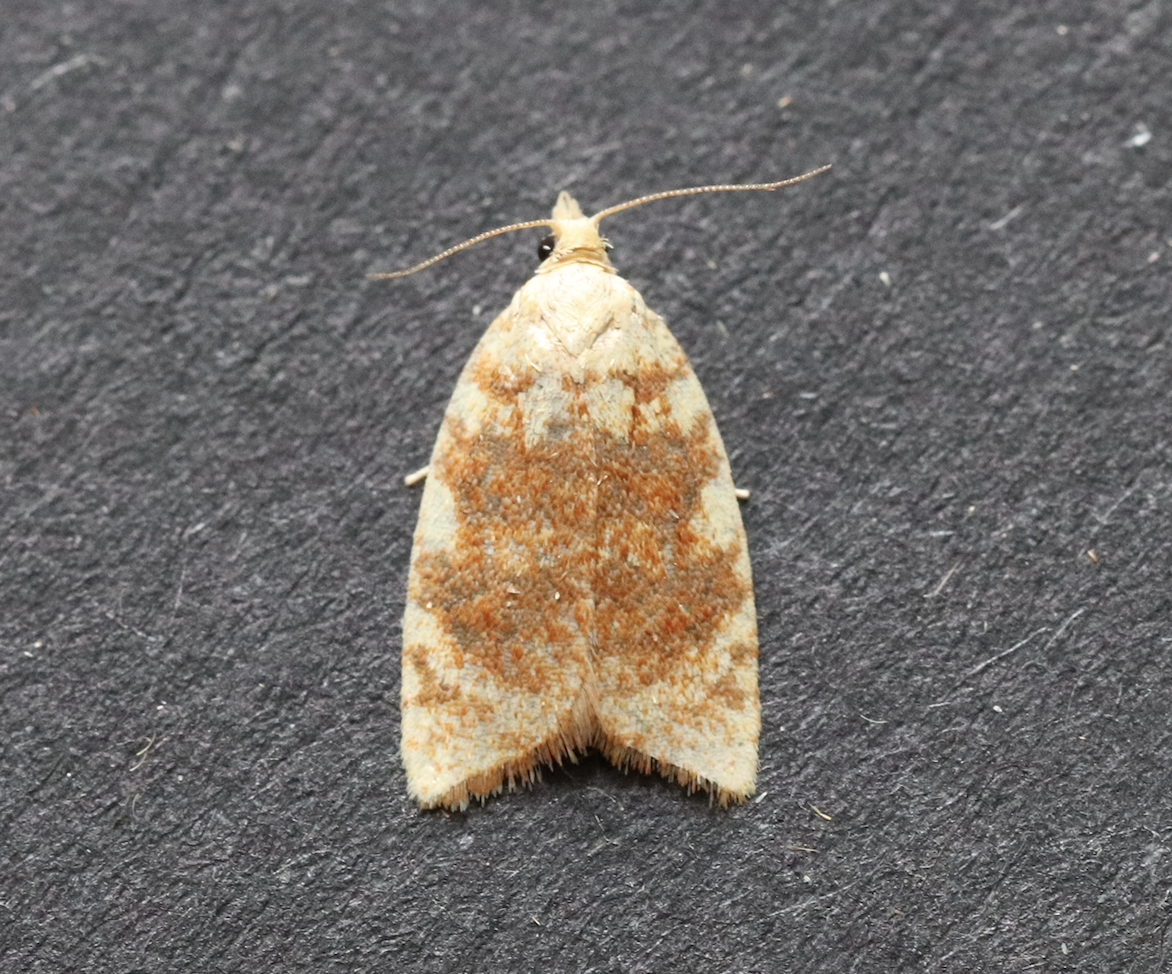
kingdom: Animalia
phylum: Arthropoda
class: Insecta
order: Lepidoptera
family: Tortricidae
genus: Aleimma
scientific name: Aleimma loeflingiana
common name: Yellow oak button
